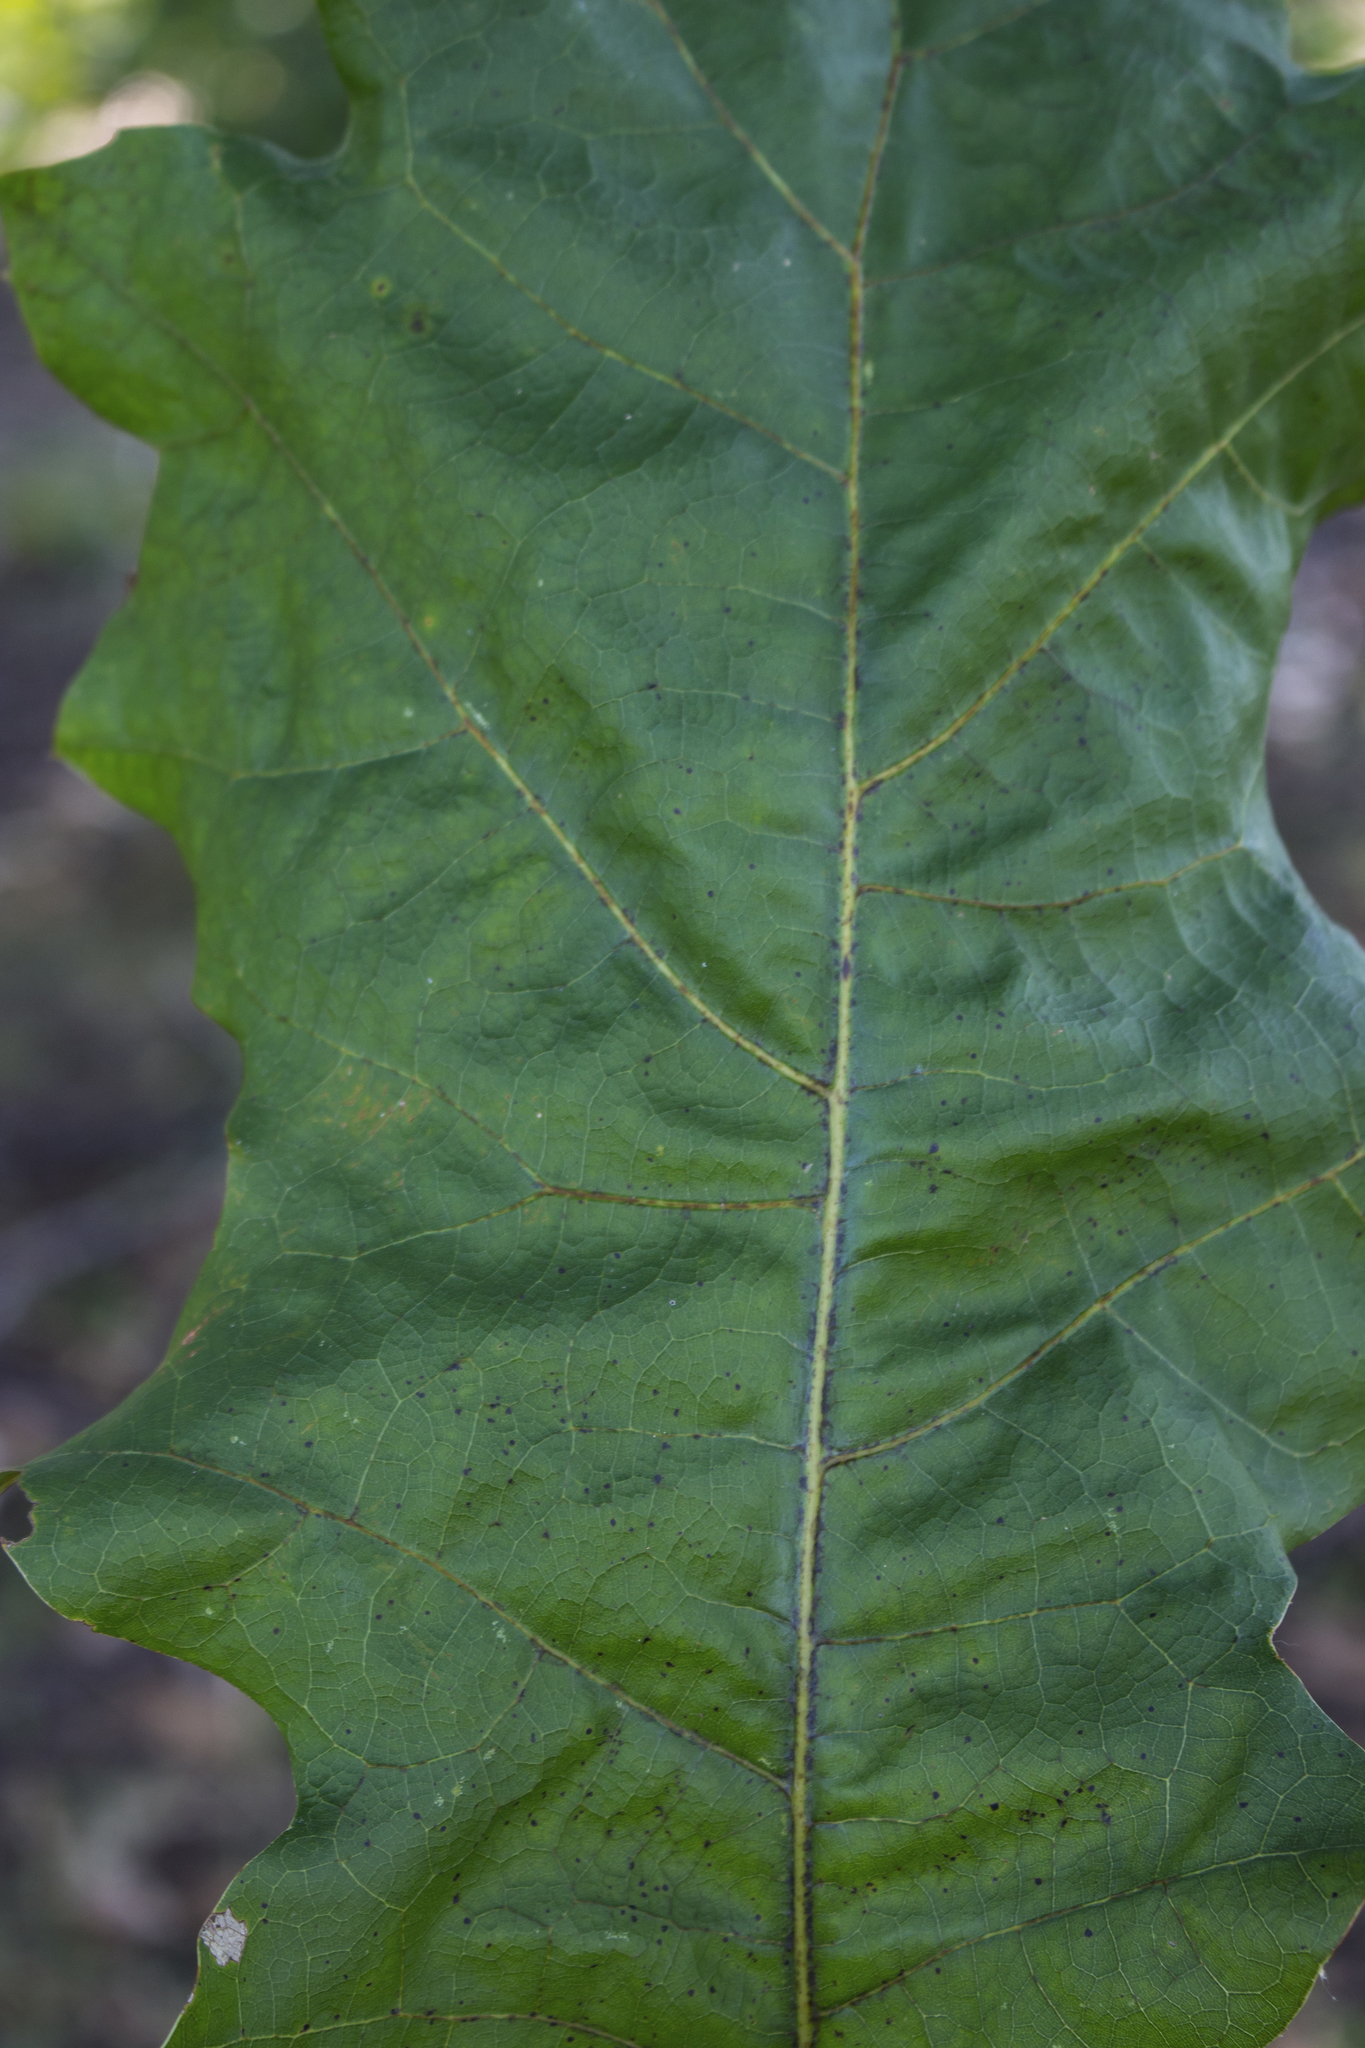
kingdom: Plantae
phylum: Tracheophyta
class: Magnoliopsida
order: Fagales
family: Fagaceae
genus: Quercus
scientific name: Quercus velutina
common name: Black oak
